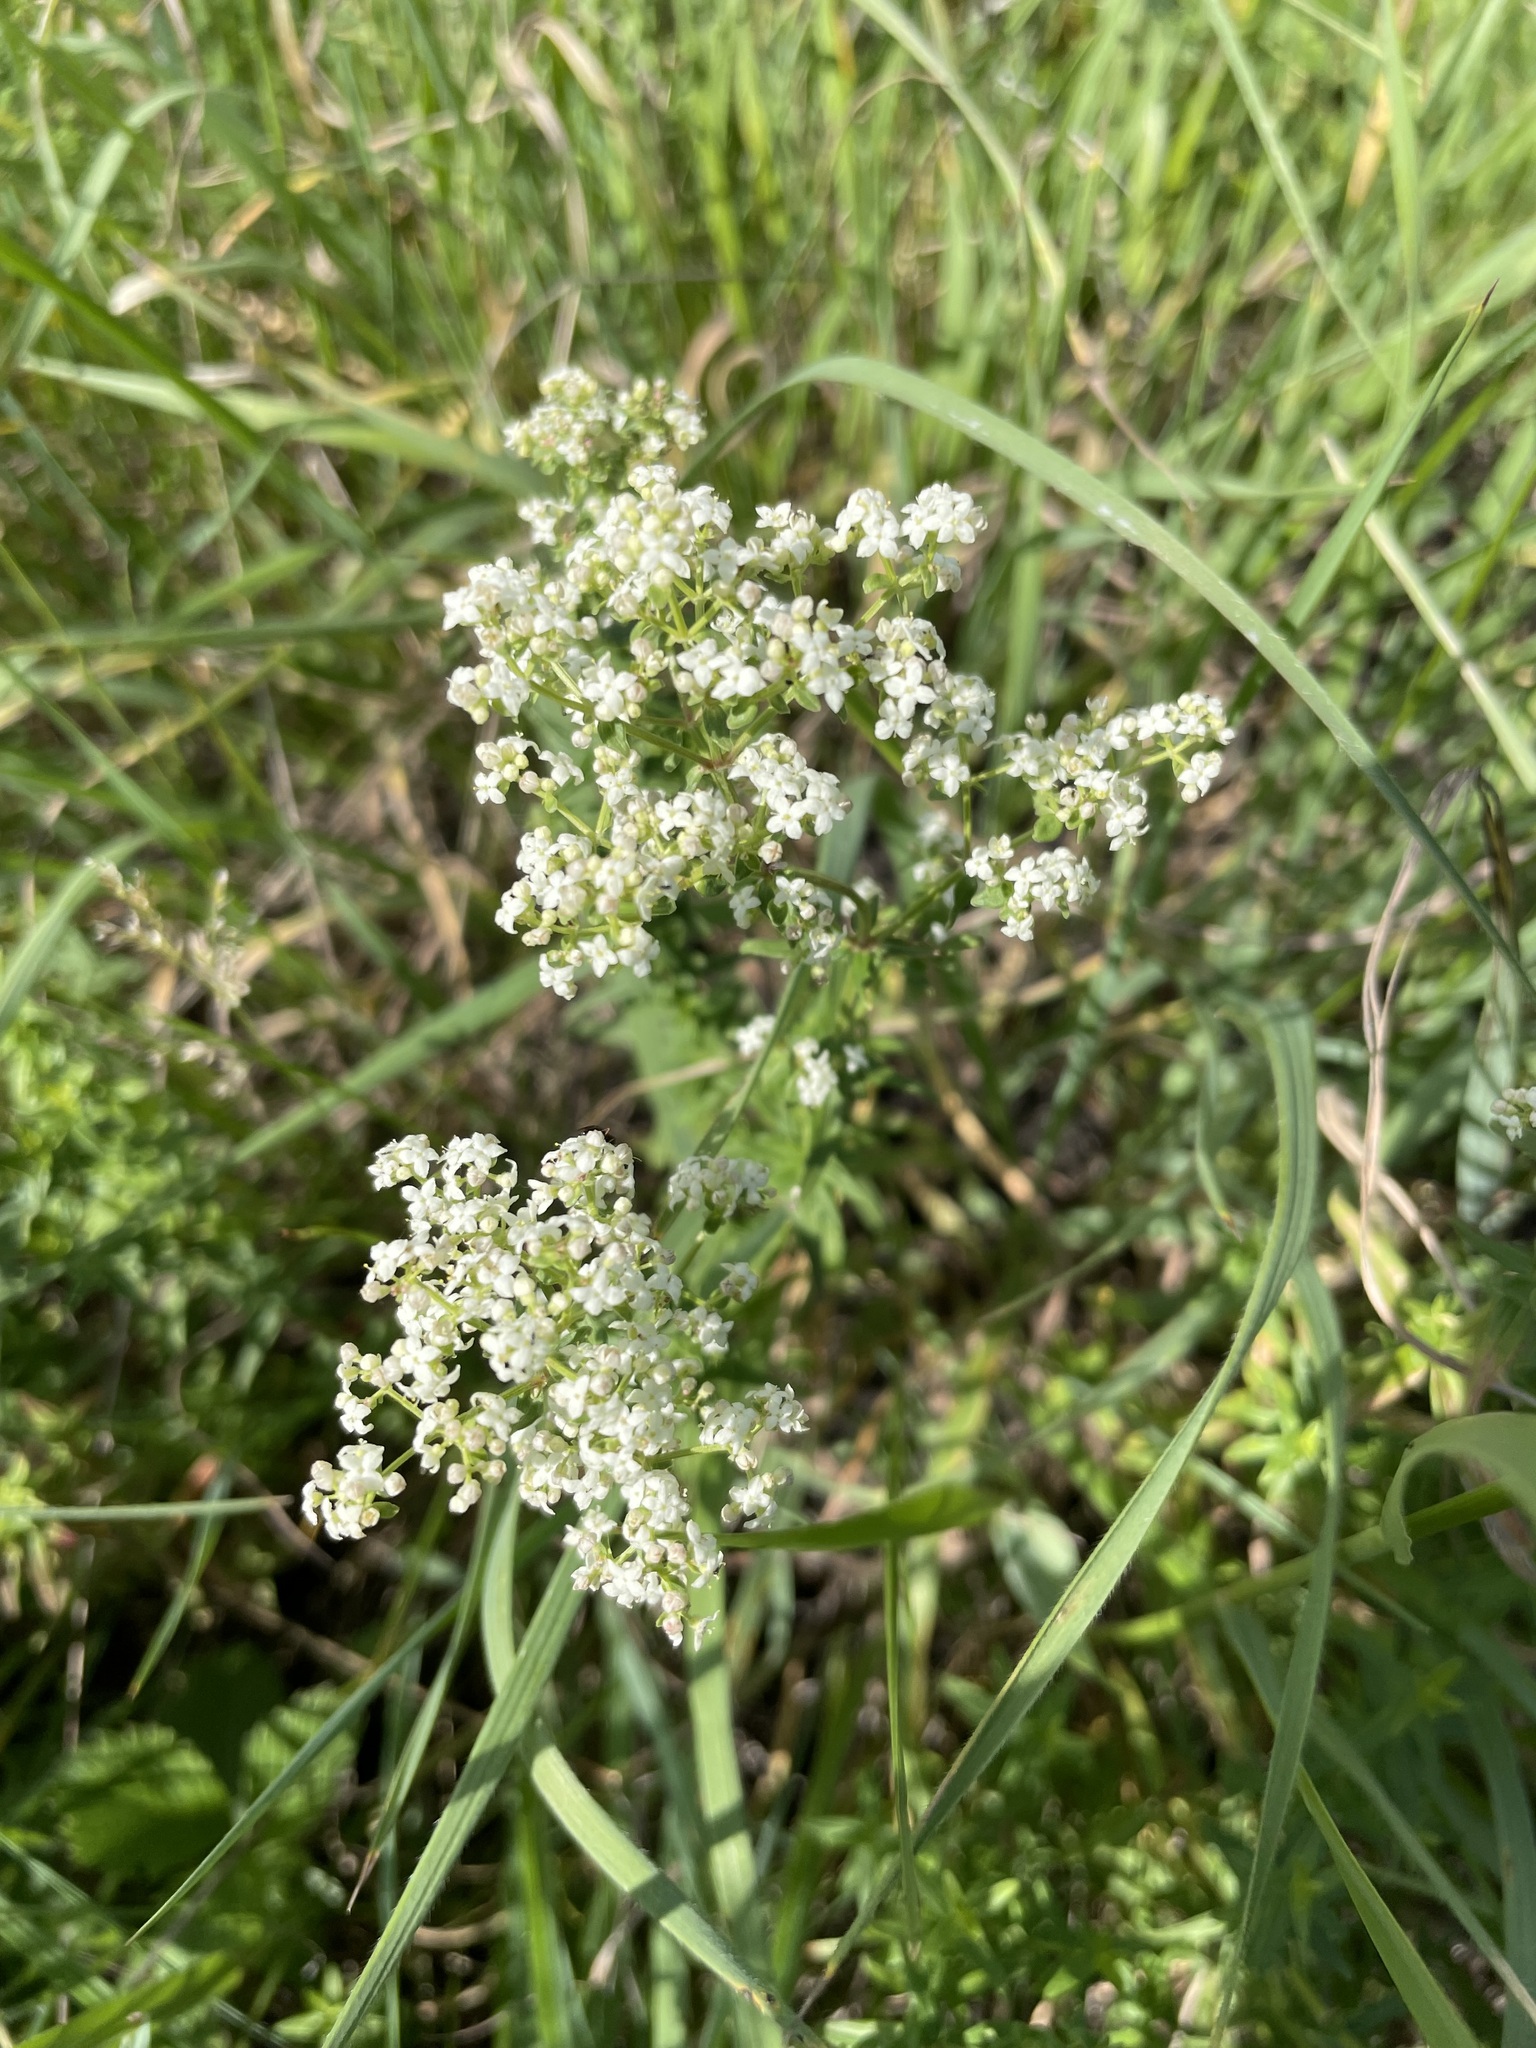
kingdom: Plantae
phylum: Tracheophyta
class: Magnoliopsida
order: Gentianales
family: Rubiaceae
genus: Galium
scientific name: Galium boreale
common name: Northern bedstraw
